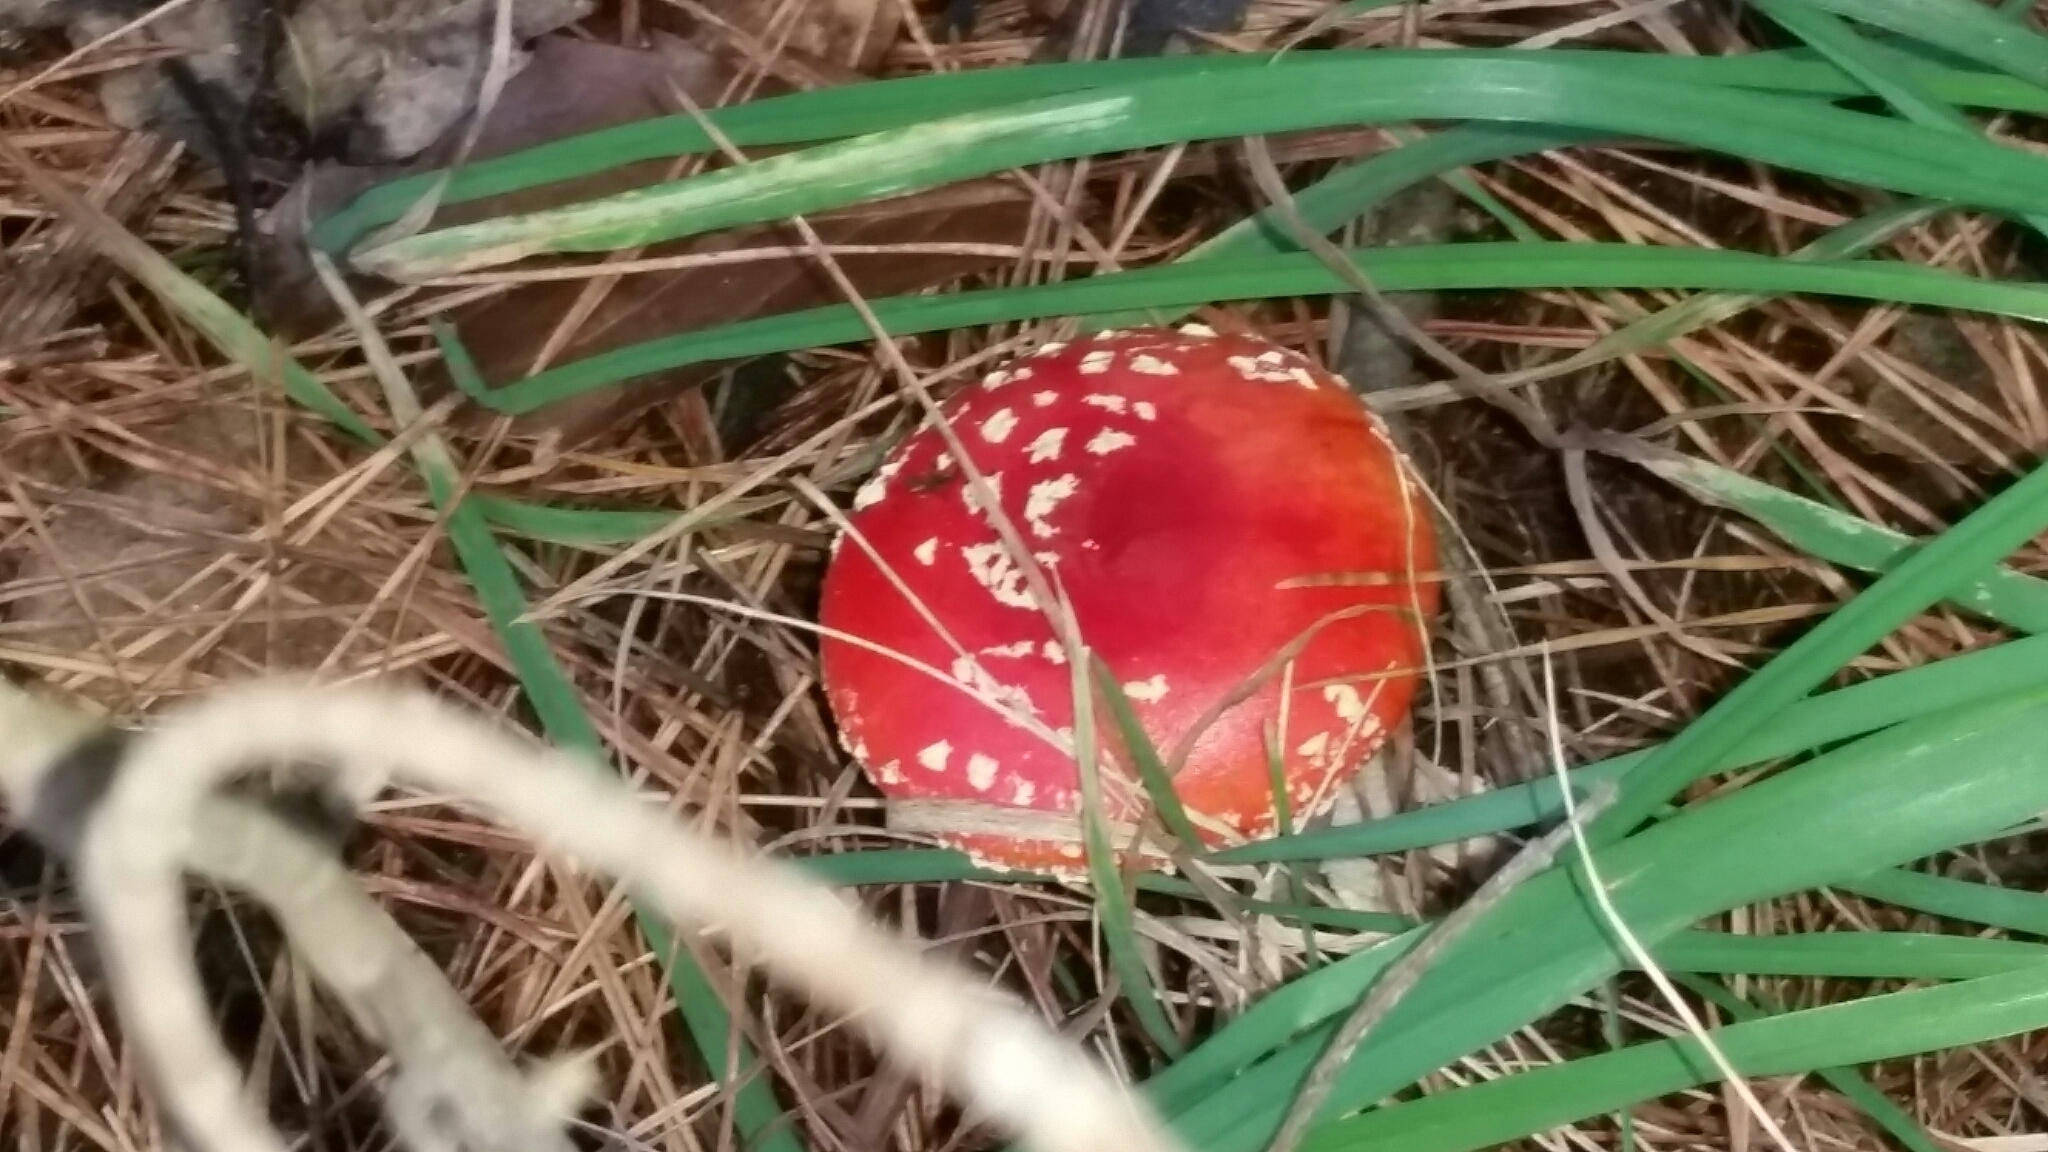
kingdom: Fungi
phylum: Basidiomycota
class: Agaricomycetes
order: Agaricales
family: Amanitaceae
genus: Amanita
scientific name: Amanita muscaria
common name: Fly agaric
